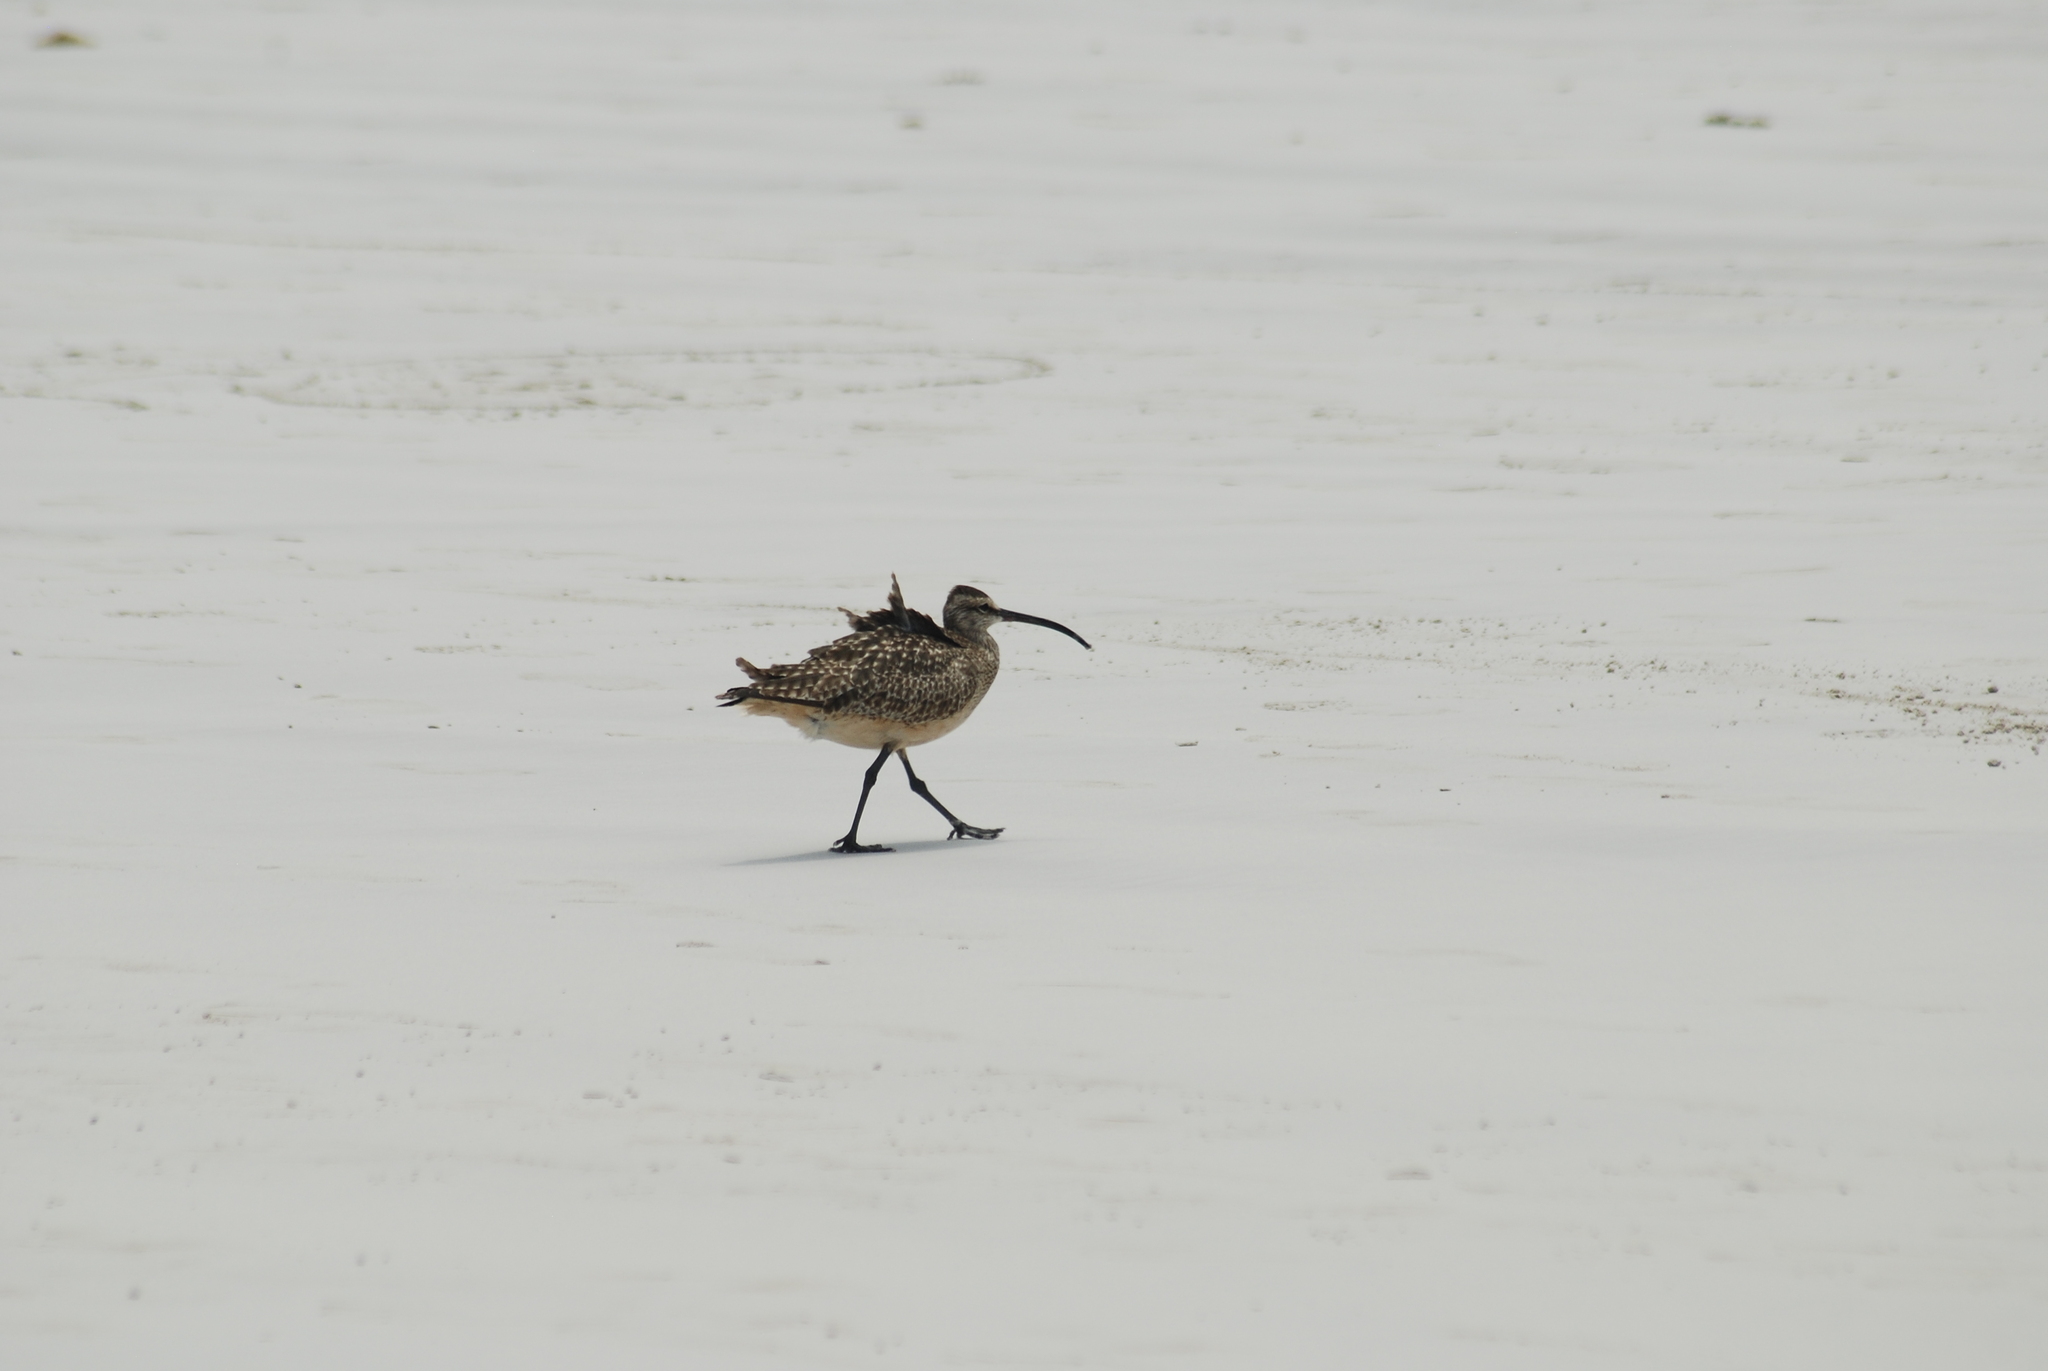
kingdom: Animalia
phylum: Chordata
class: Aves
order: Charadriiformes
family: Scolopacidae
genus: Numenius
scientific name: Numenius phaeopus
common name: Whimbrel
